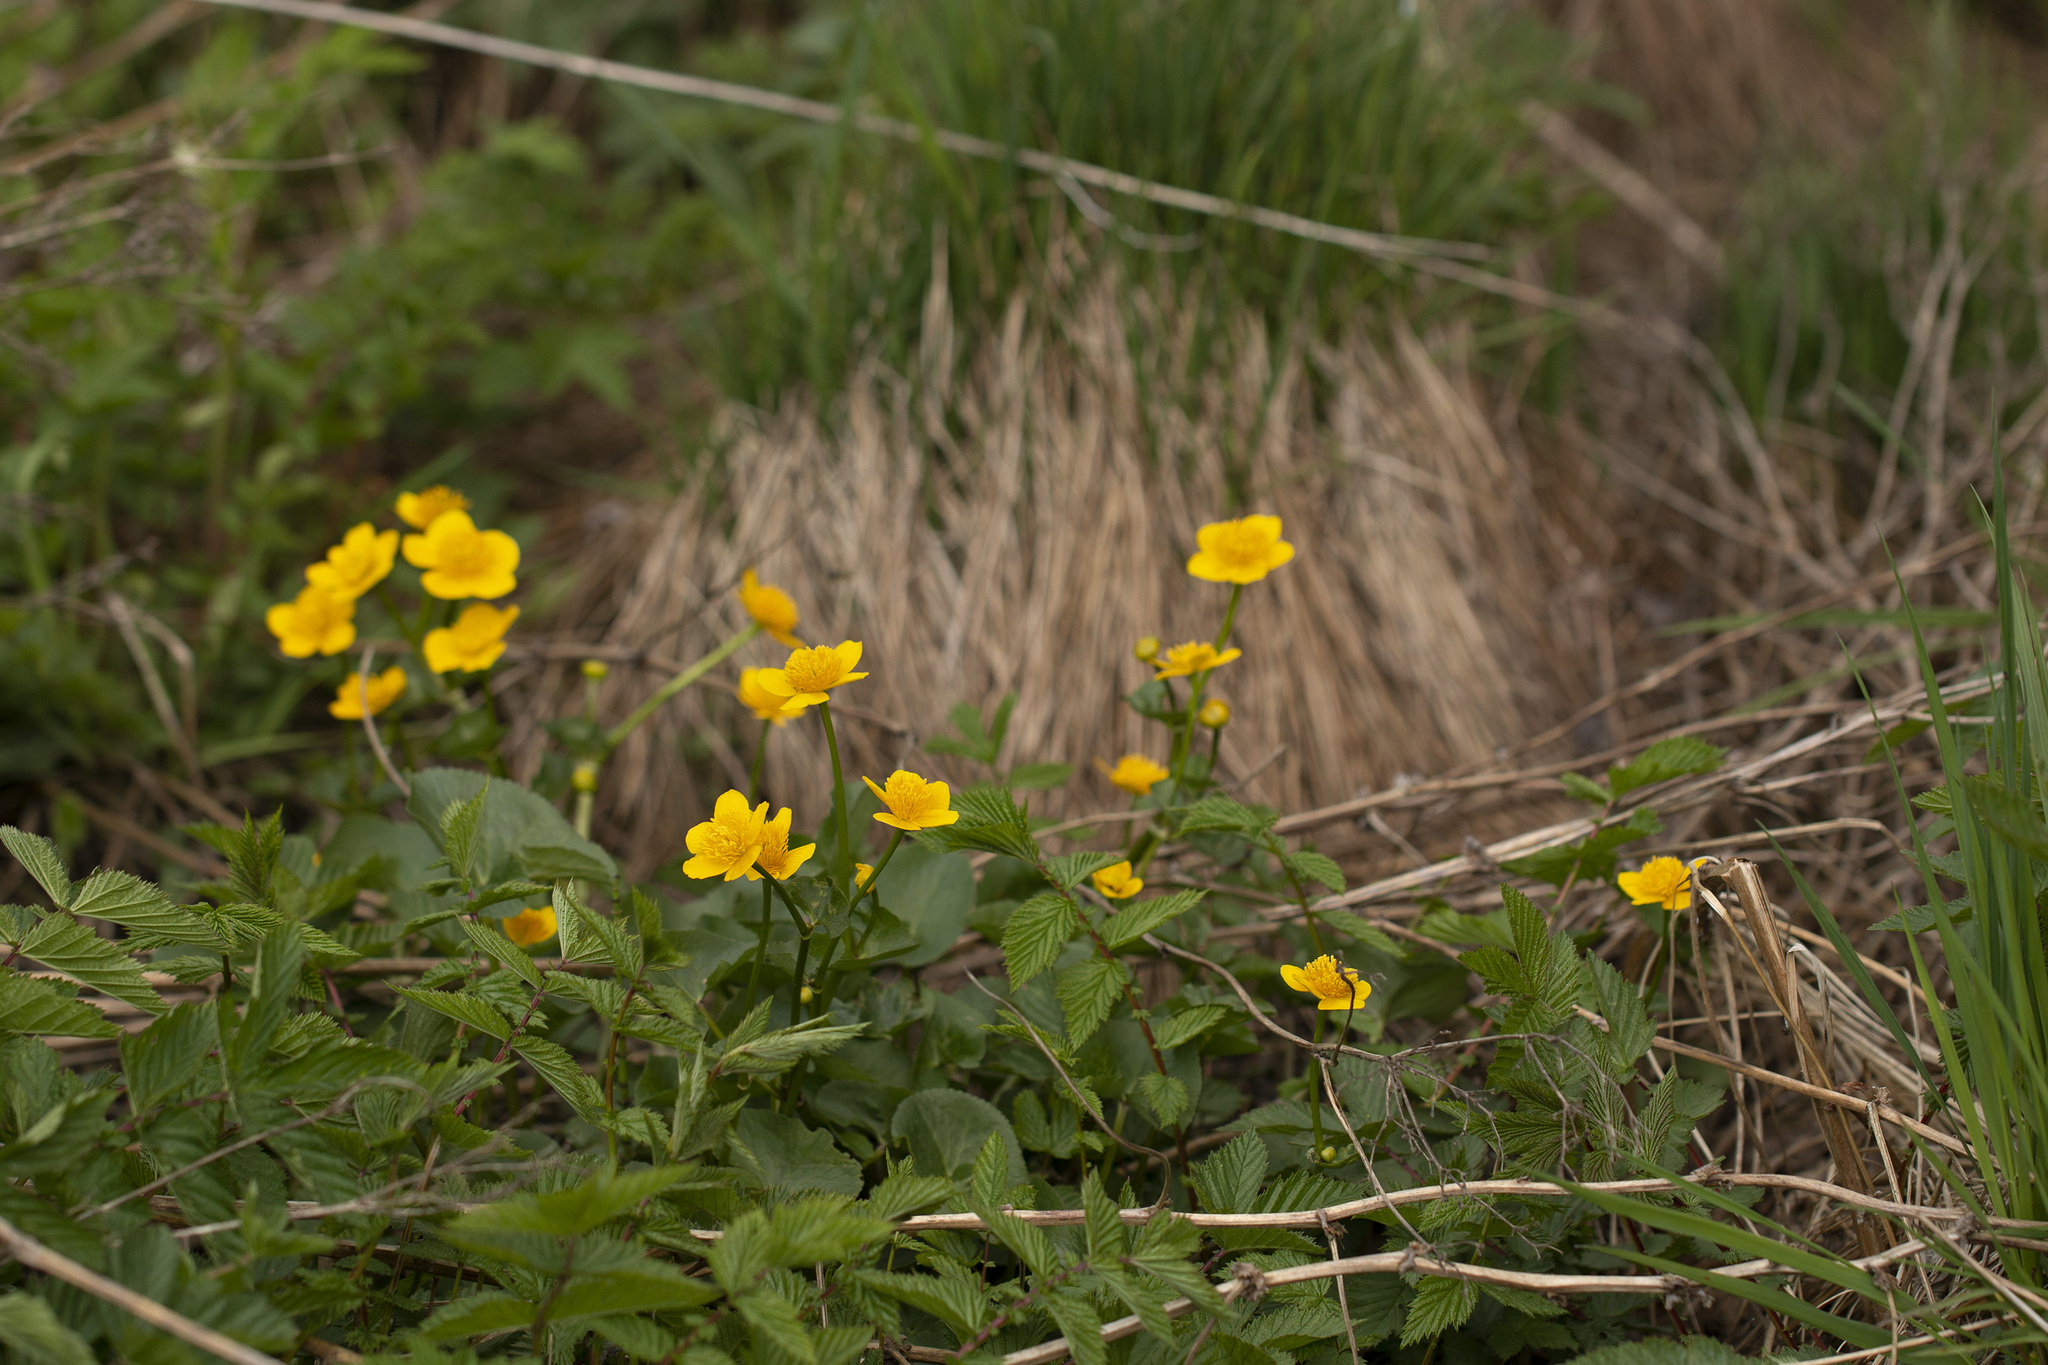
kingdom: Plantae
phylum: Tracheophyta
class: Magnoliopsida
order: Ranunculales
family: Ranunculaceae
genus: Caltha
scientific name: Caltha palustris
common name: Marsh marigold
